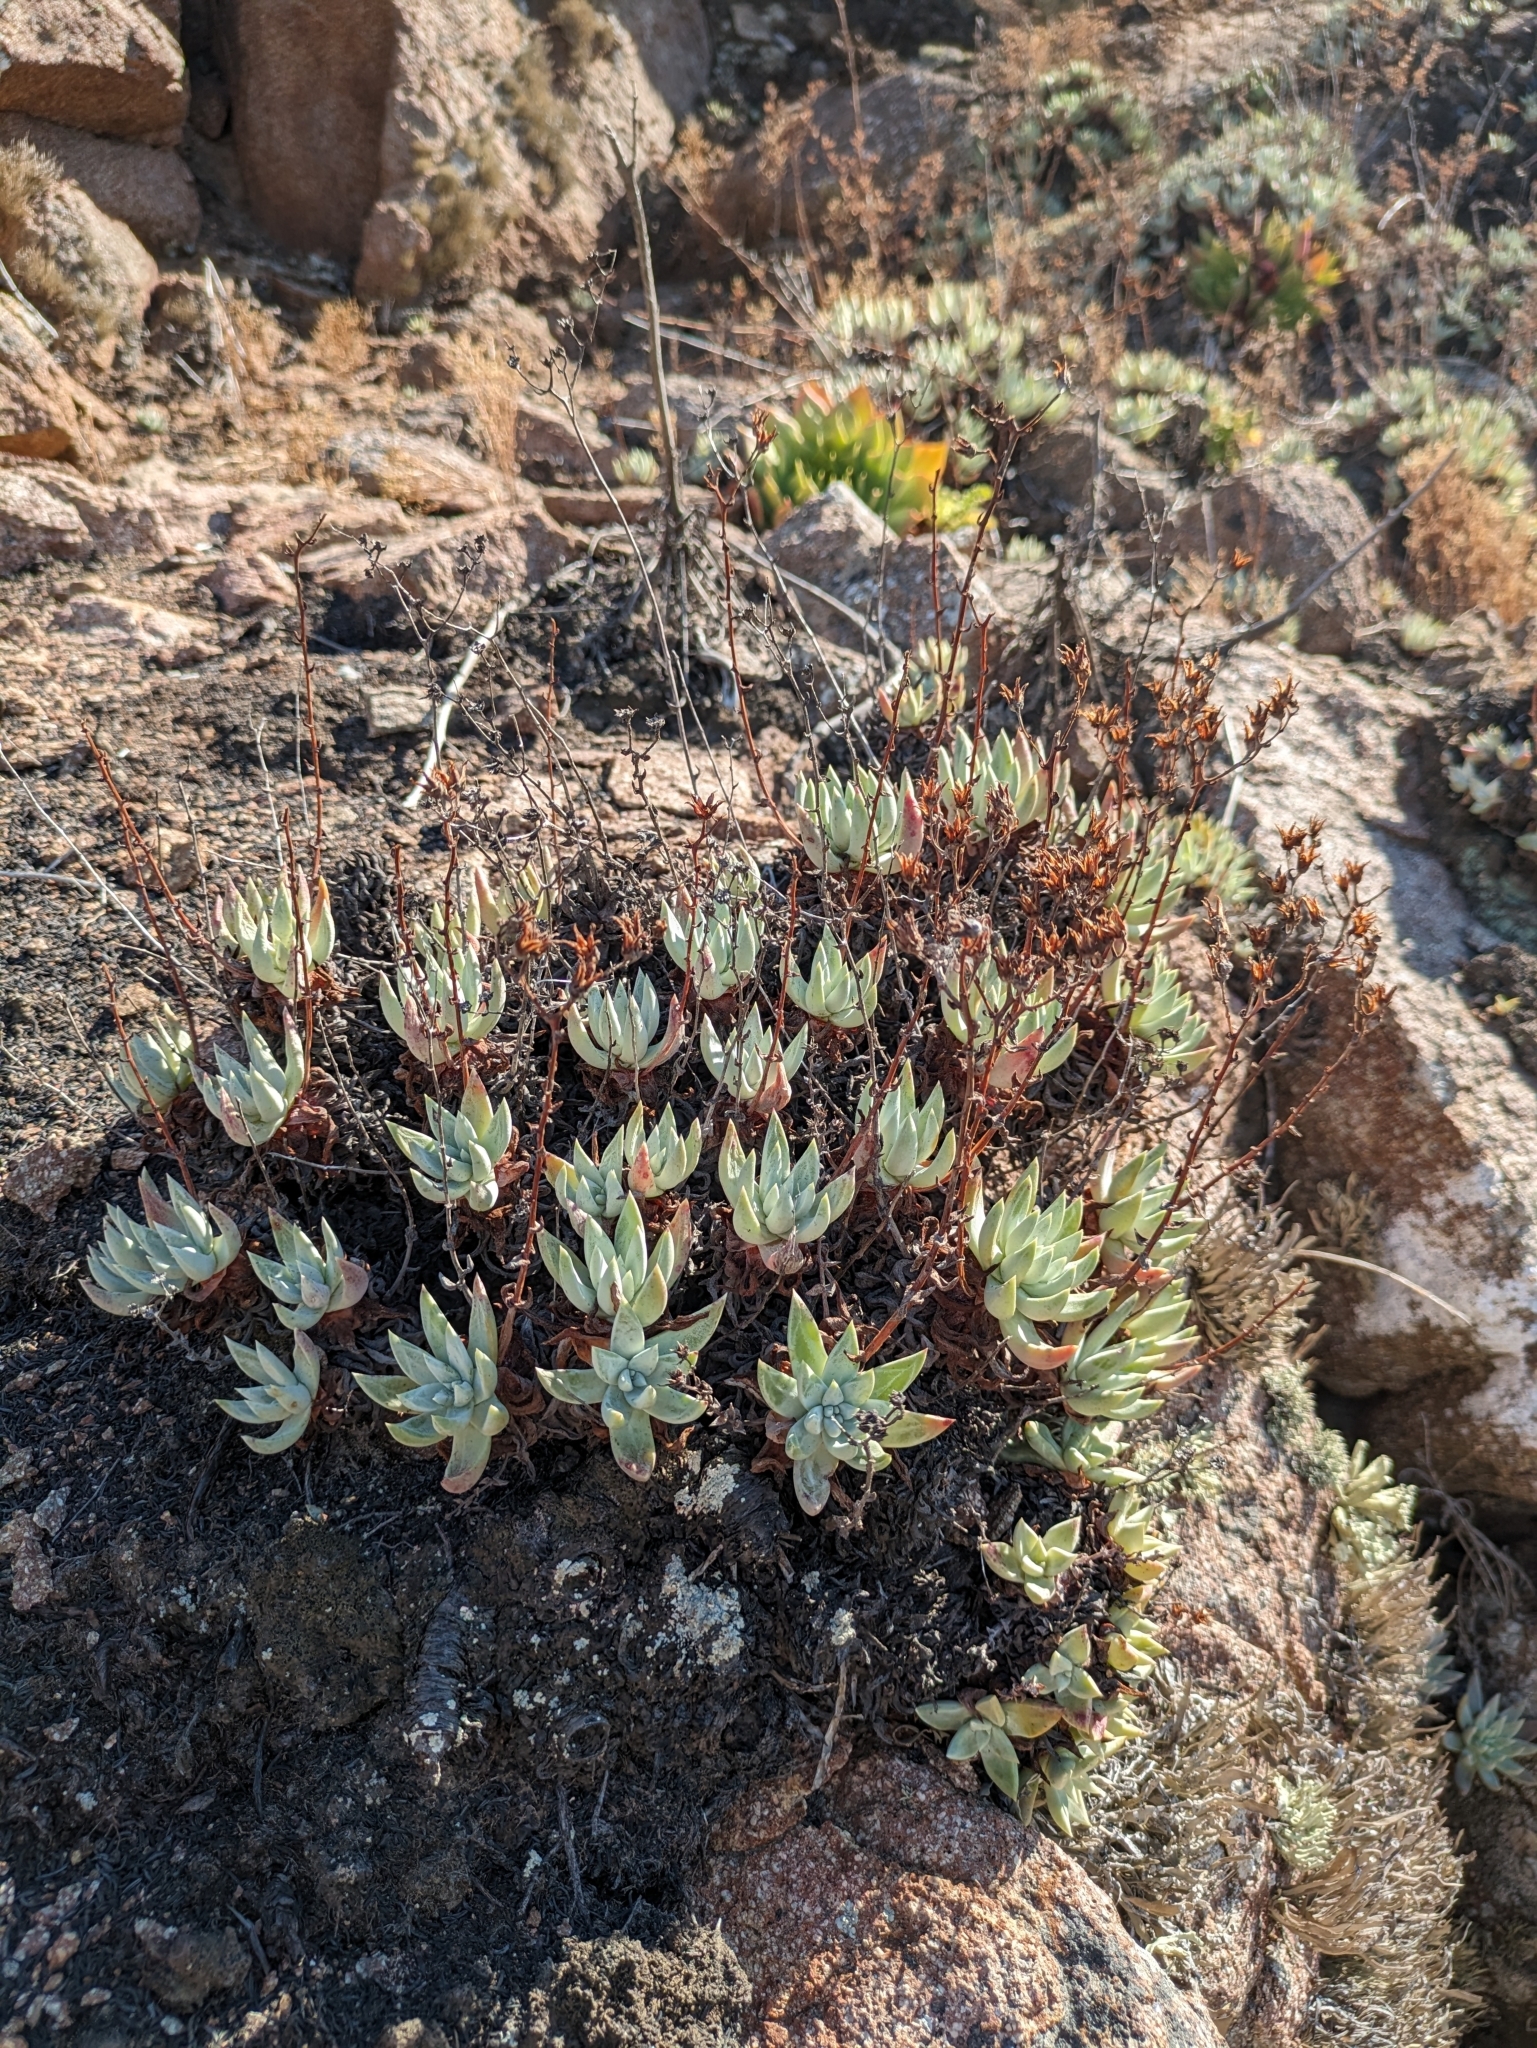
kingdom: Plantae
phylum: Tracheophyta
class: Magnoliopsida
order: Saxifragales
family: Crassulaceae
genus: Dudleya
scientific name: Dudleya campanulata
